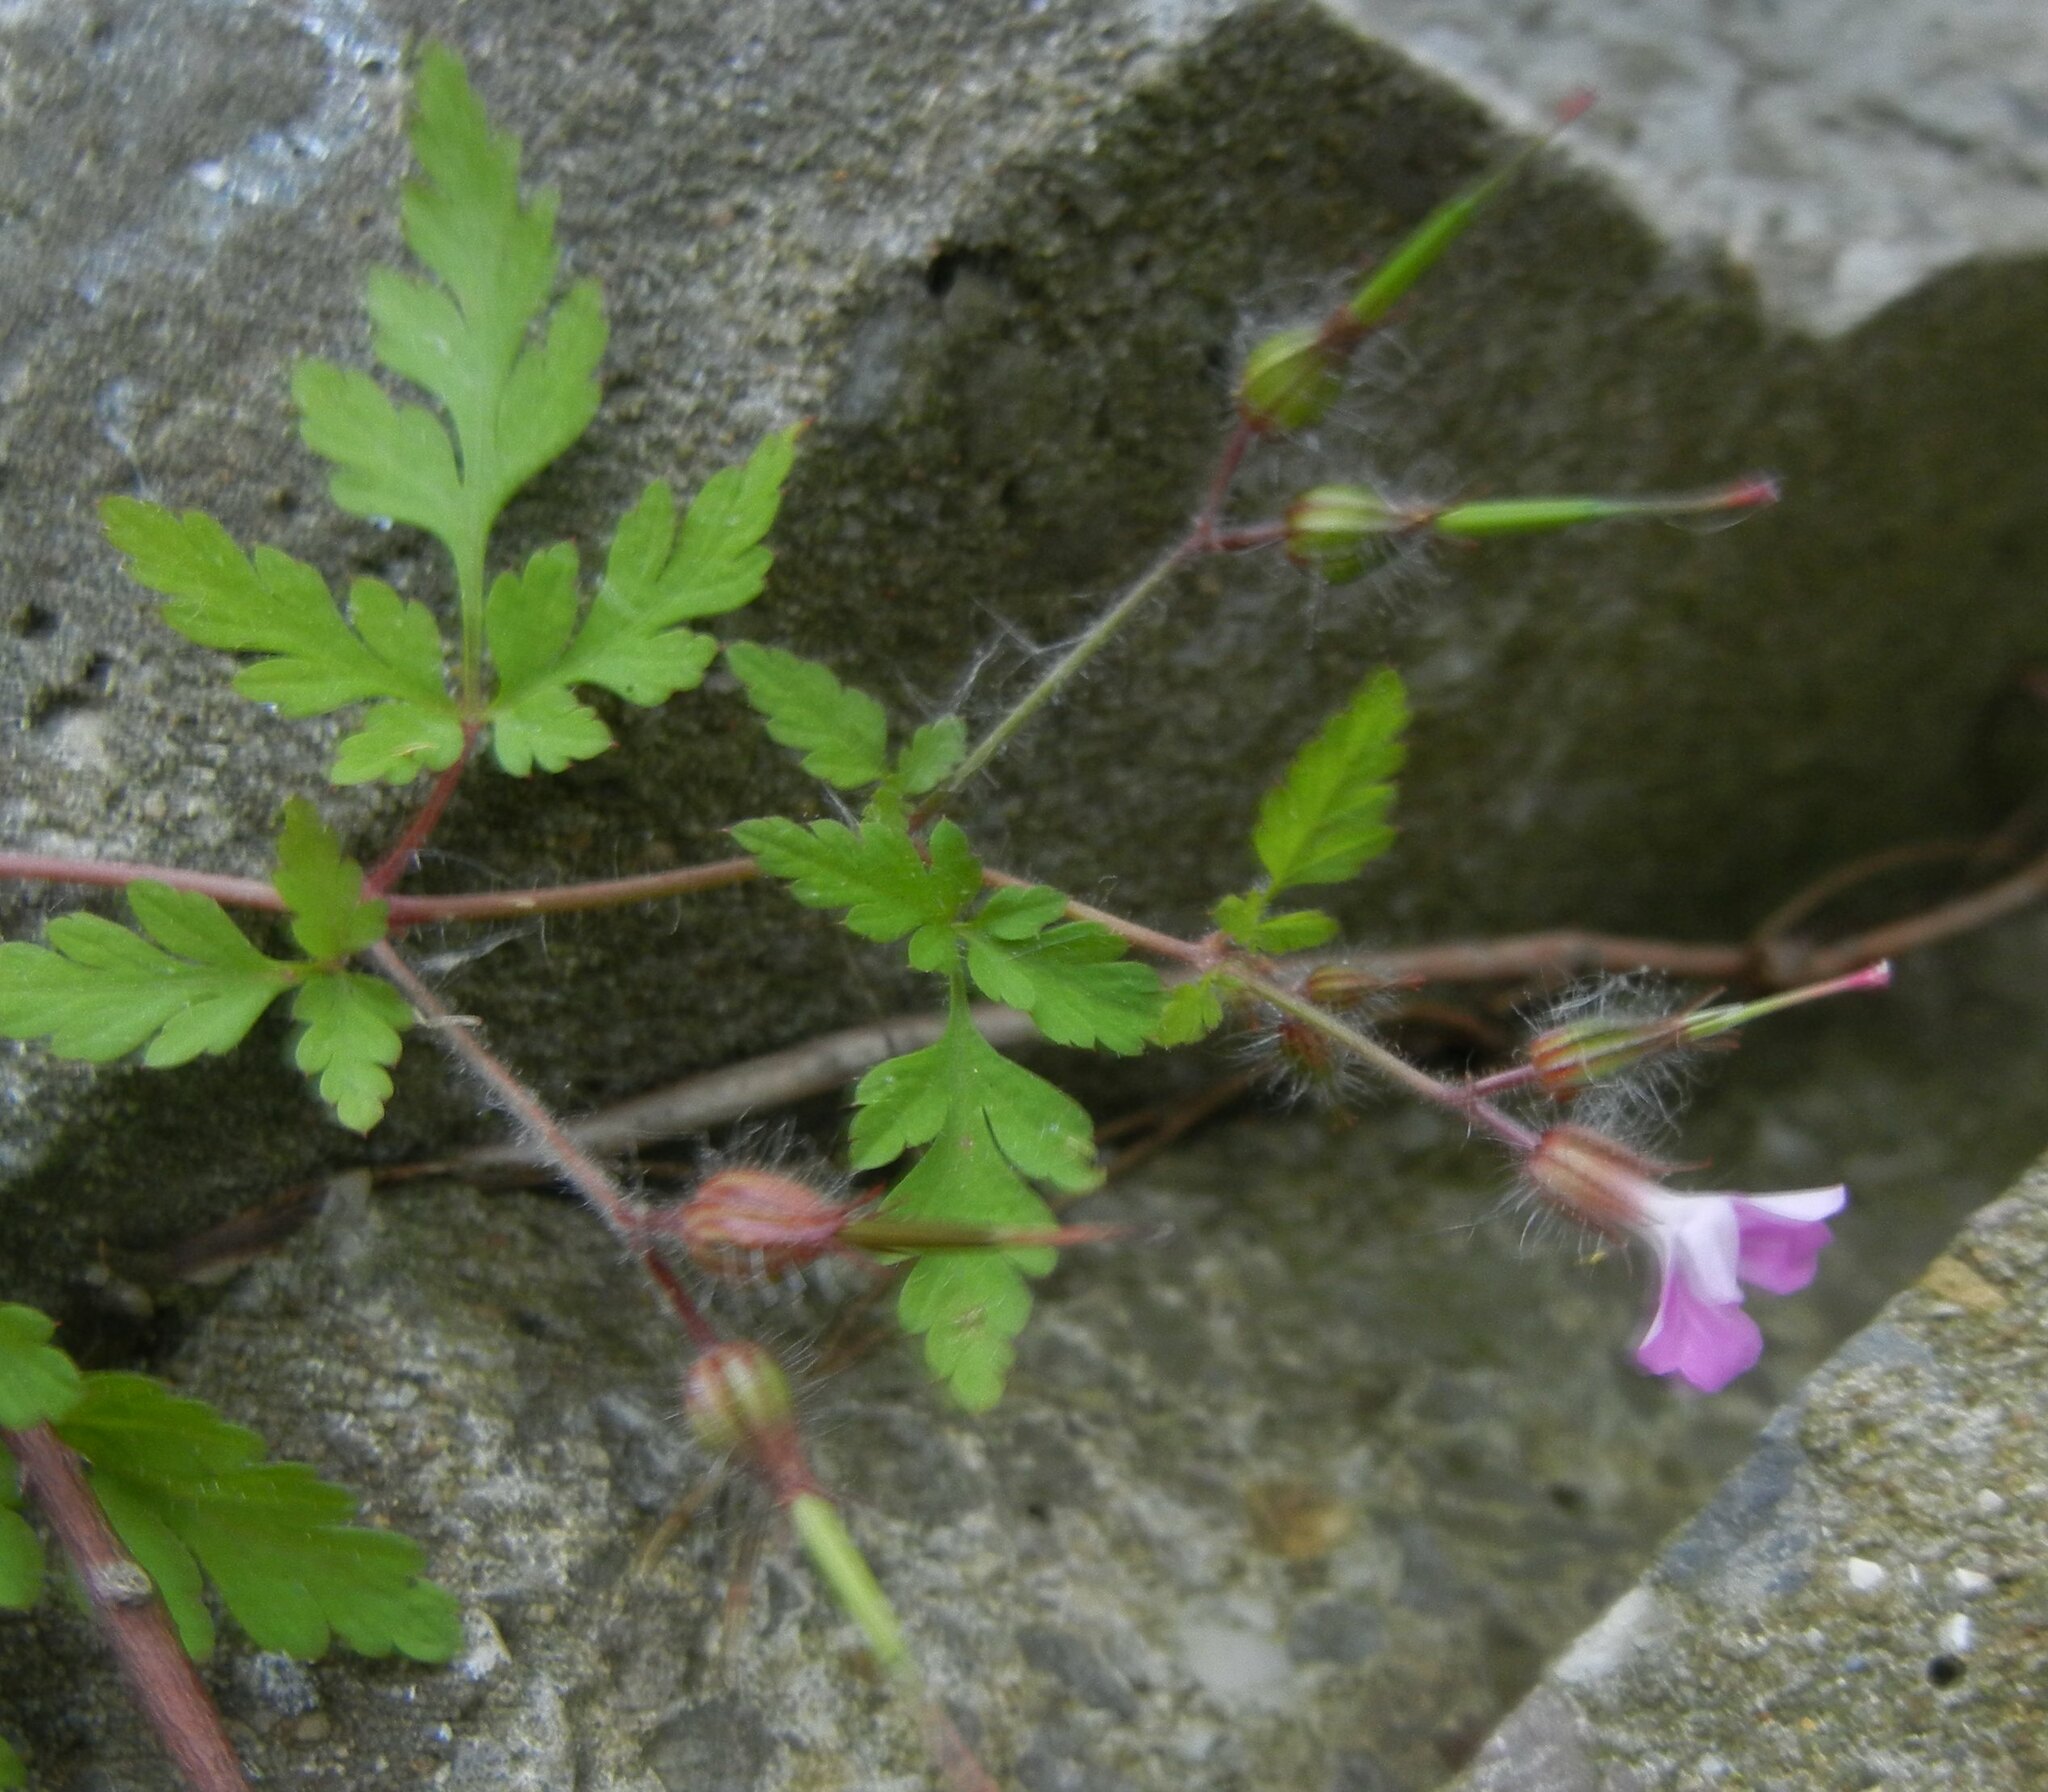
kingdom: Plantae
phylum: Tracheophyta
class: Magnoliopsida
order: Geraniales
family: Geraniaceae
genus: Geranium
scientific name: Geranium robertianum
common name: Herb-robert
